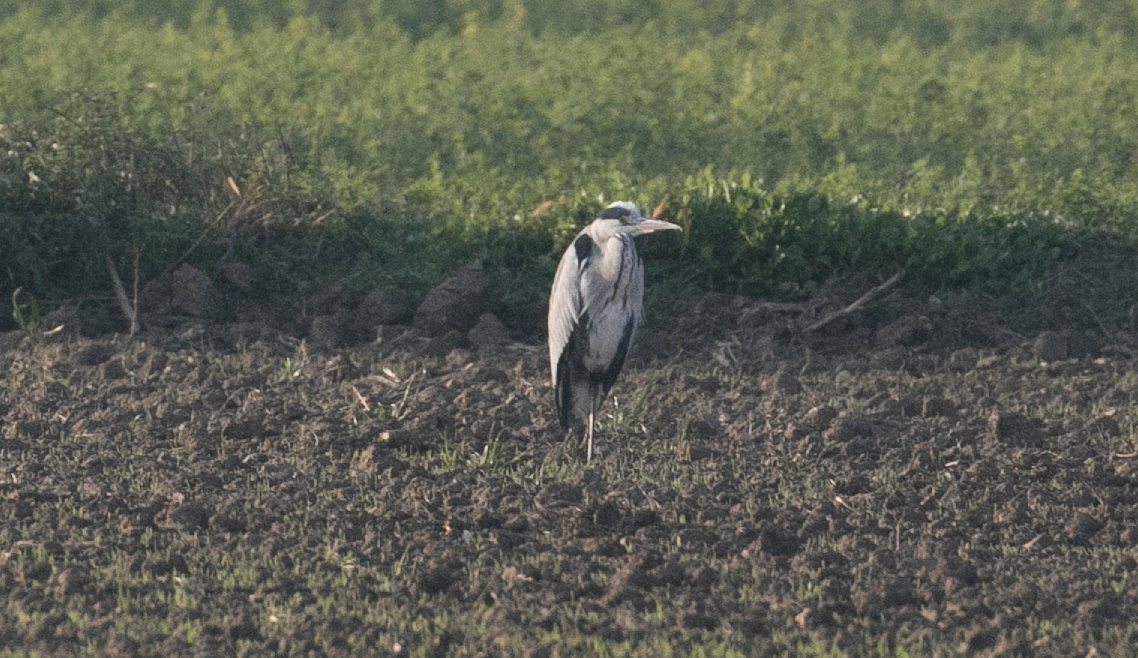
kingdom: Animalia
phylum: Chordata
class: Aves
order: Pelecaniformes
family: Ardeidae
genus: Ardea
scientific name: Ardea cinerea
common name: Grey heron
